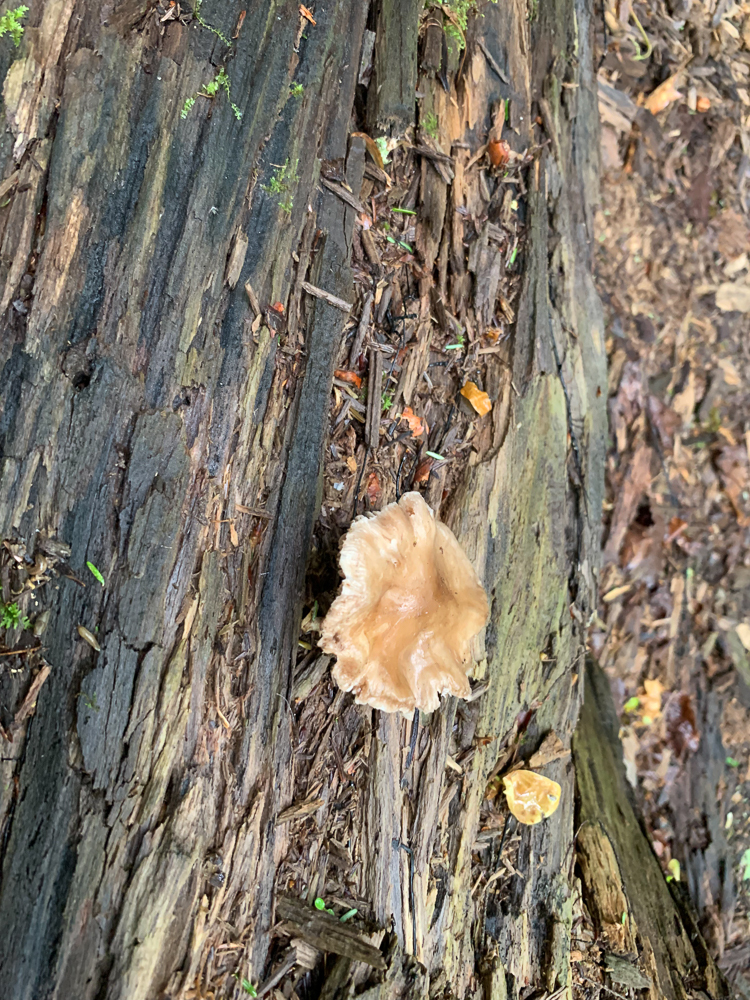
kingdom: Fungi
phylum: Basidiomycota
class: Agaricomycetes
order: Agaricales
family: Pluteaceae
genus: Pluteus
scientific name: Pluteus cervinus
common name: Deer shield
